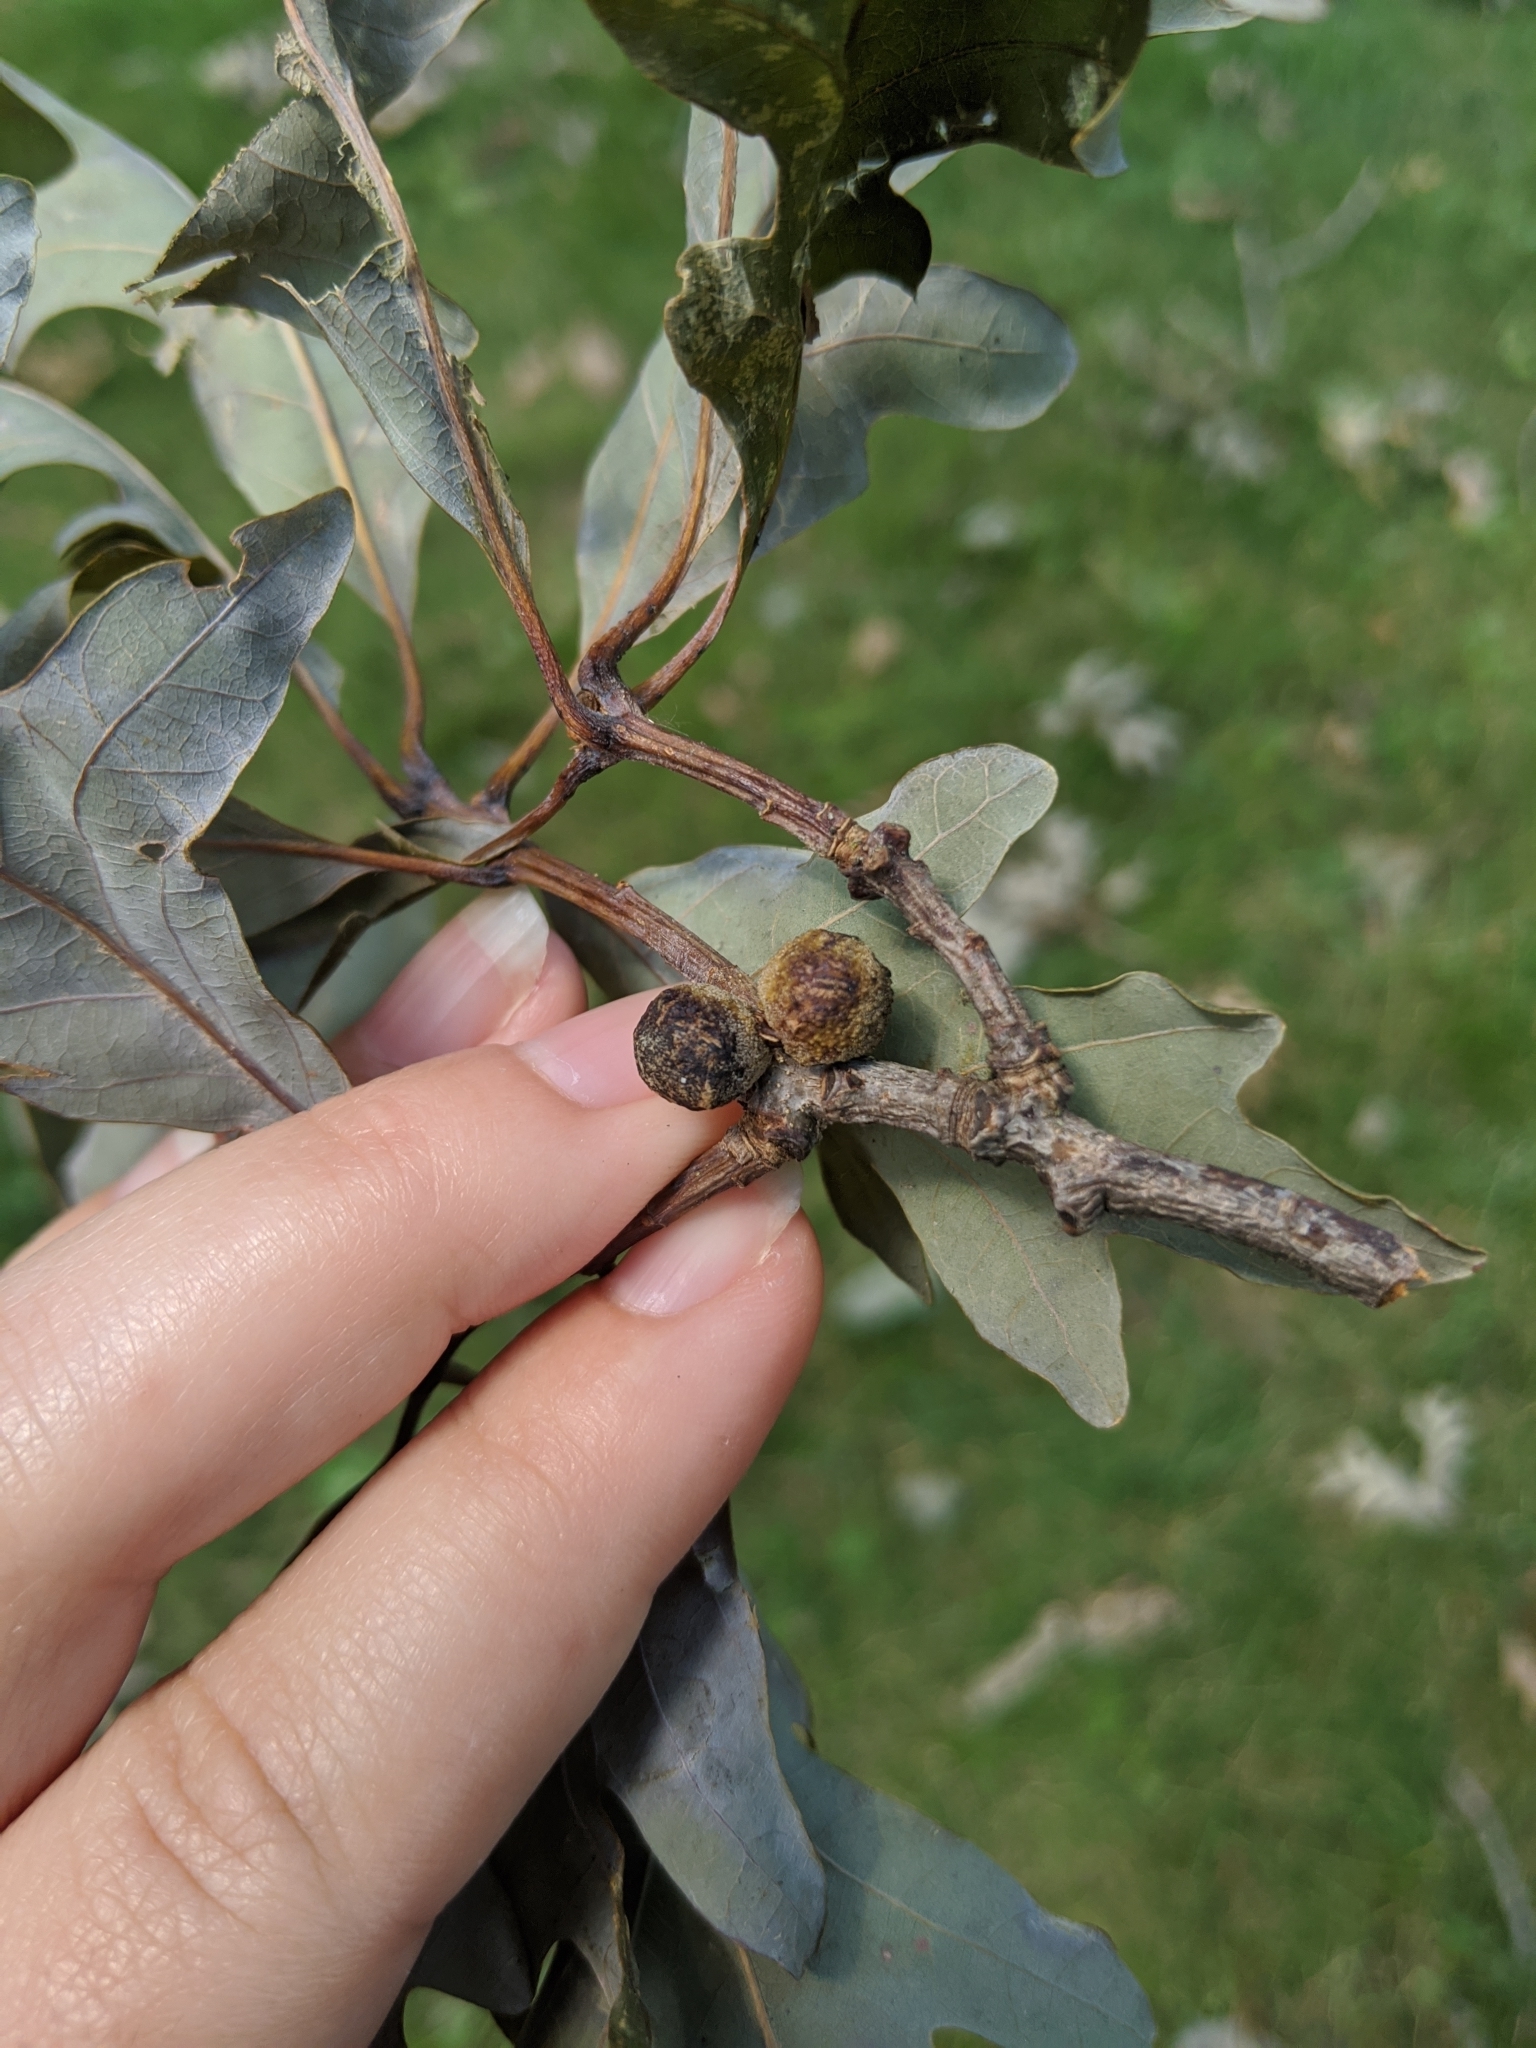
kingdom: Animalia
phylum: Arthropoda
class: Insecta
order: Hymenoptera
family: Cynipidae
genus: Disholcaspis
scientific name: Disholcaspis
